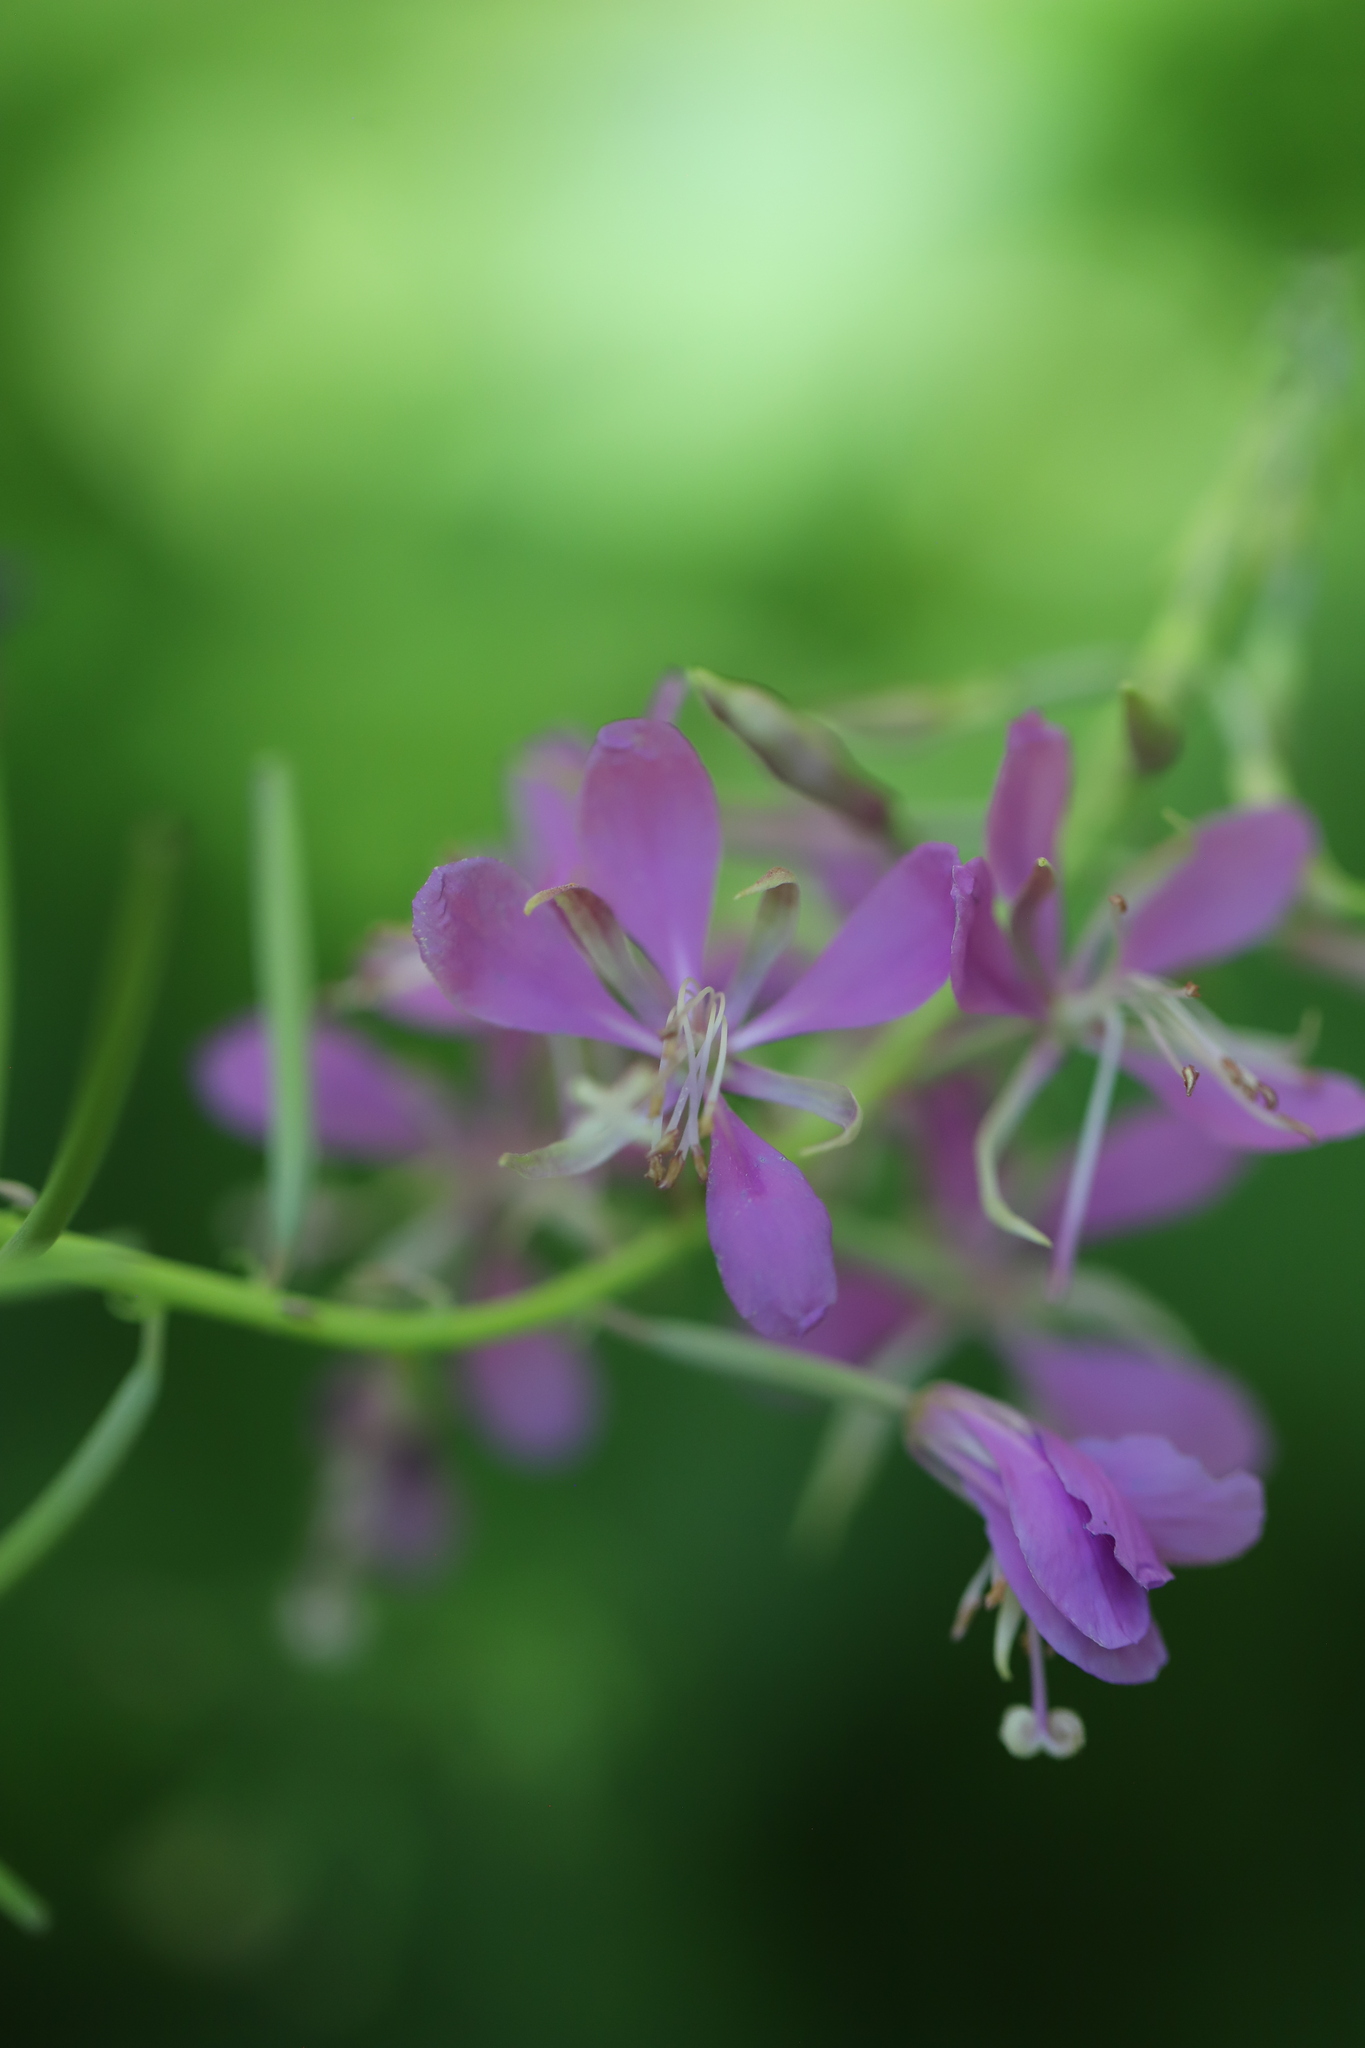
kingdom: Plantae
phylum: Tracheophyta
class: Magnoliopsida
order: Myrtales
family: Onagraceae
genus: Chamaenerion
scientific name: Chamaenerion angustifolium
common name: Fireweed
